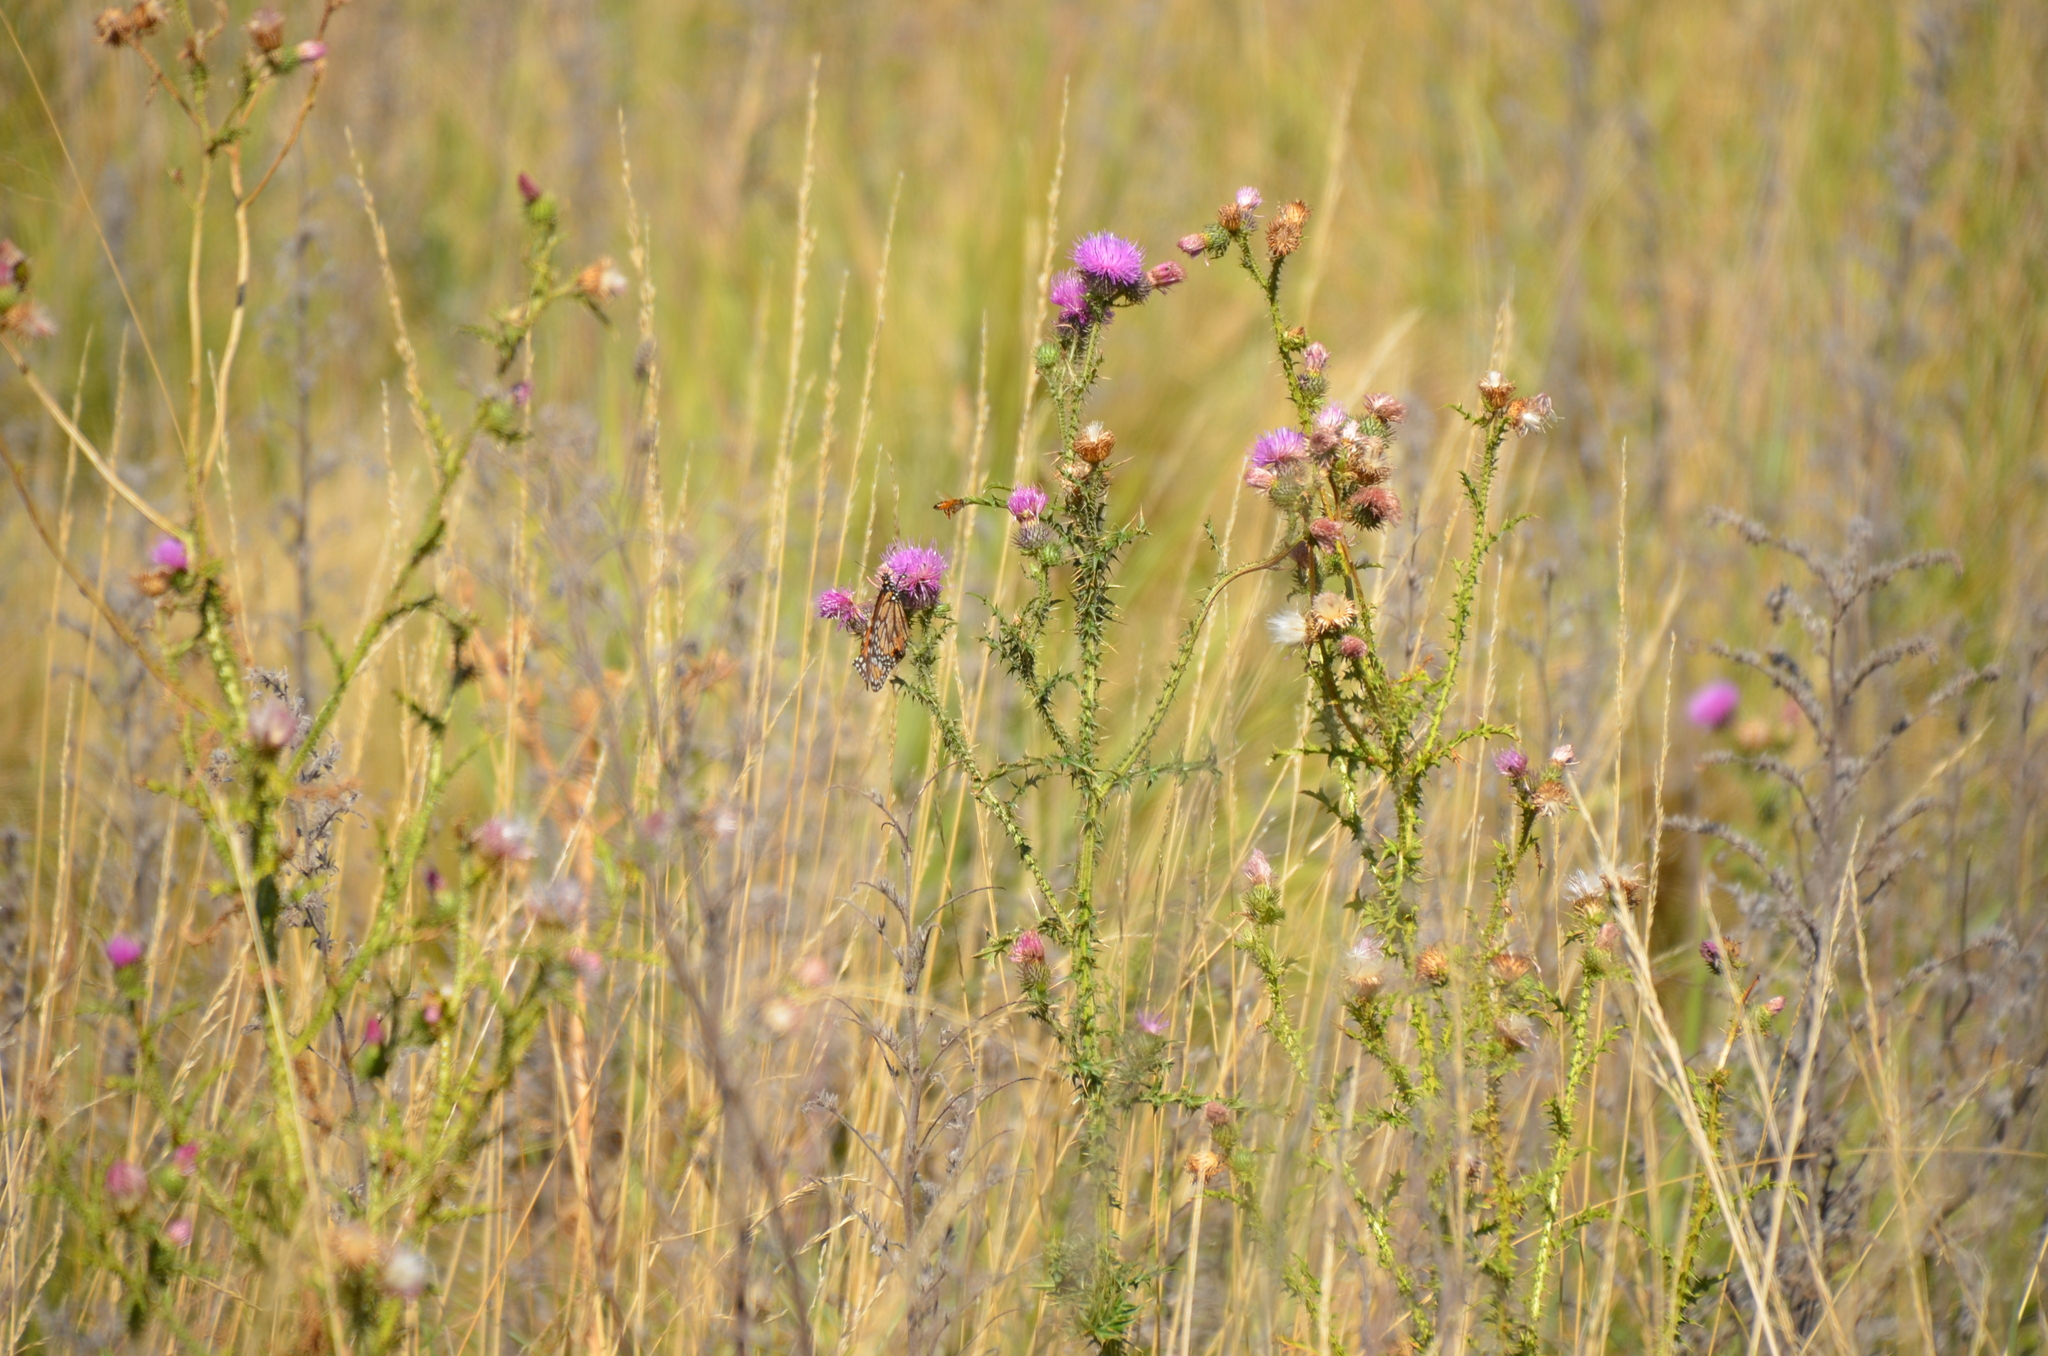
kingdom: Animalia
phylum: Arthropoda
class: Insecta
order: Lepidoptera
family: Nymphalidae
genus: Danaus
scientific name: Danaus erippus
